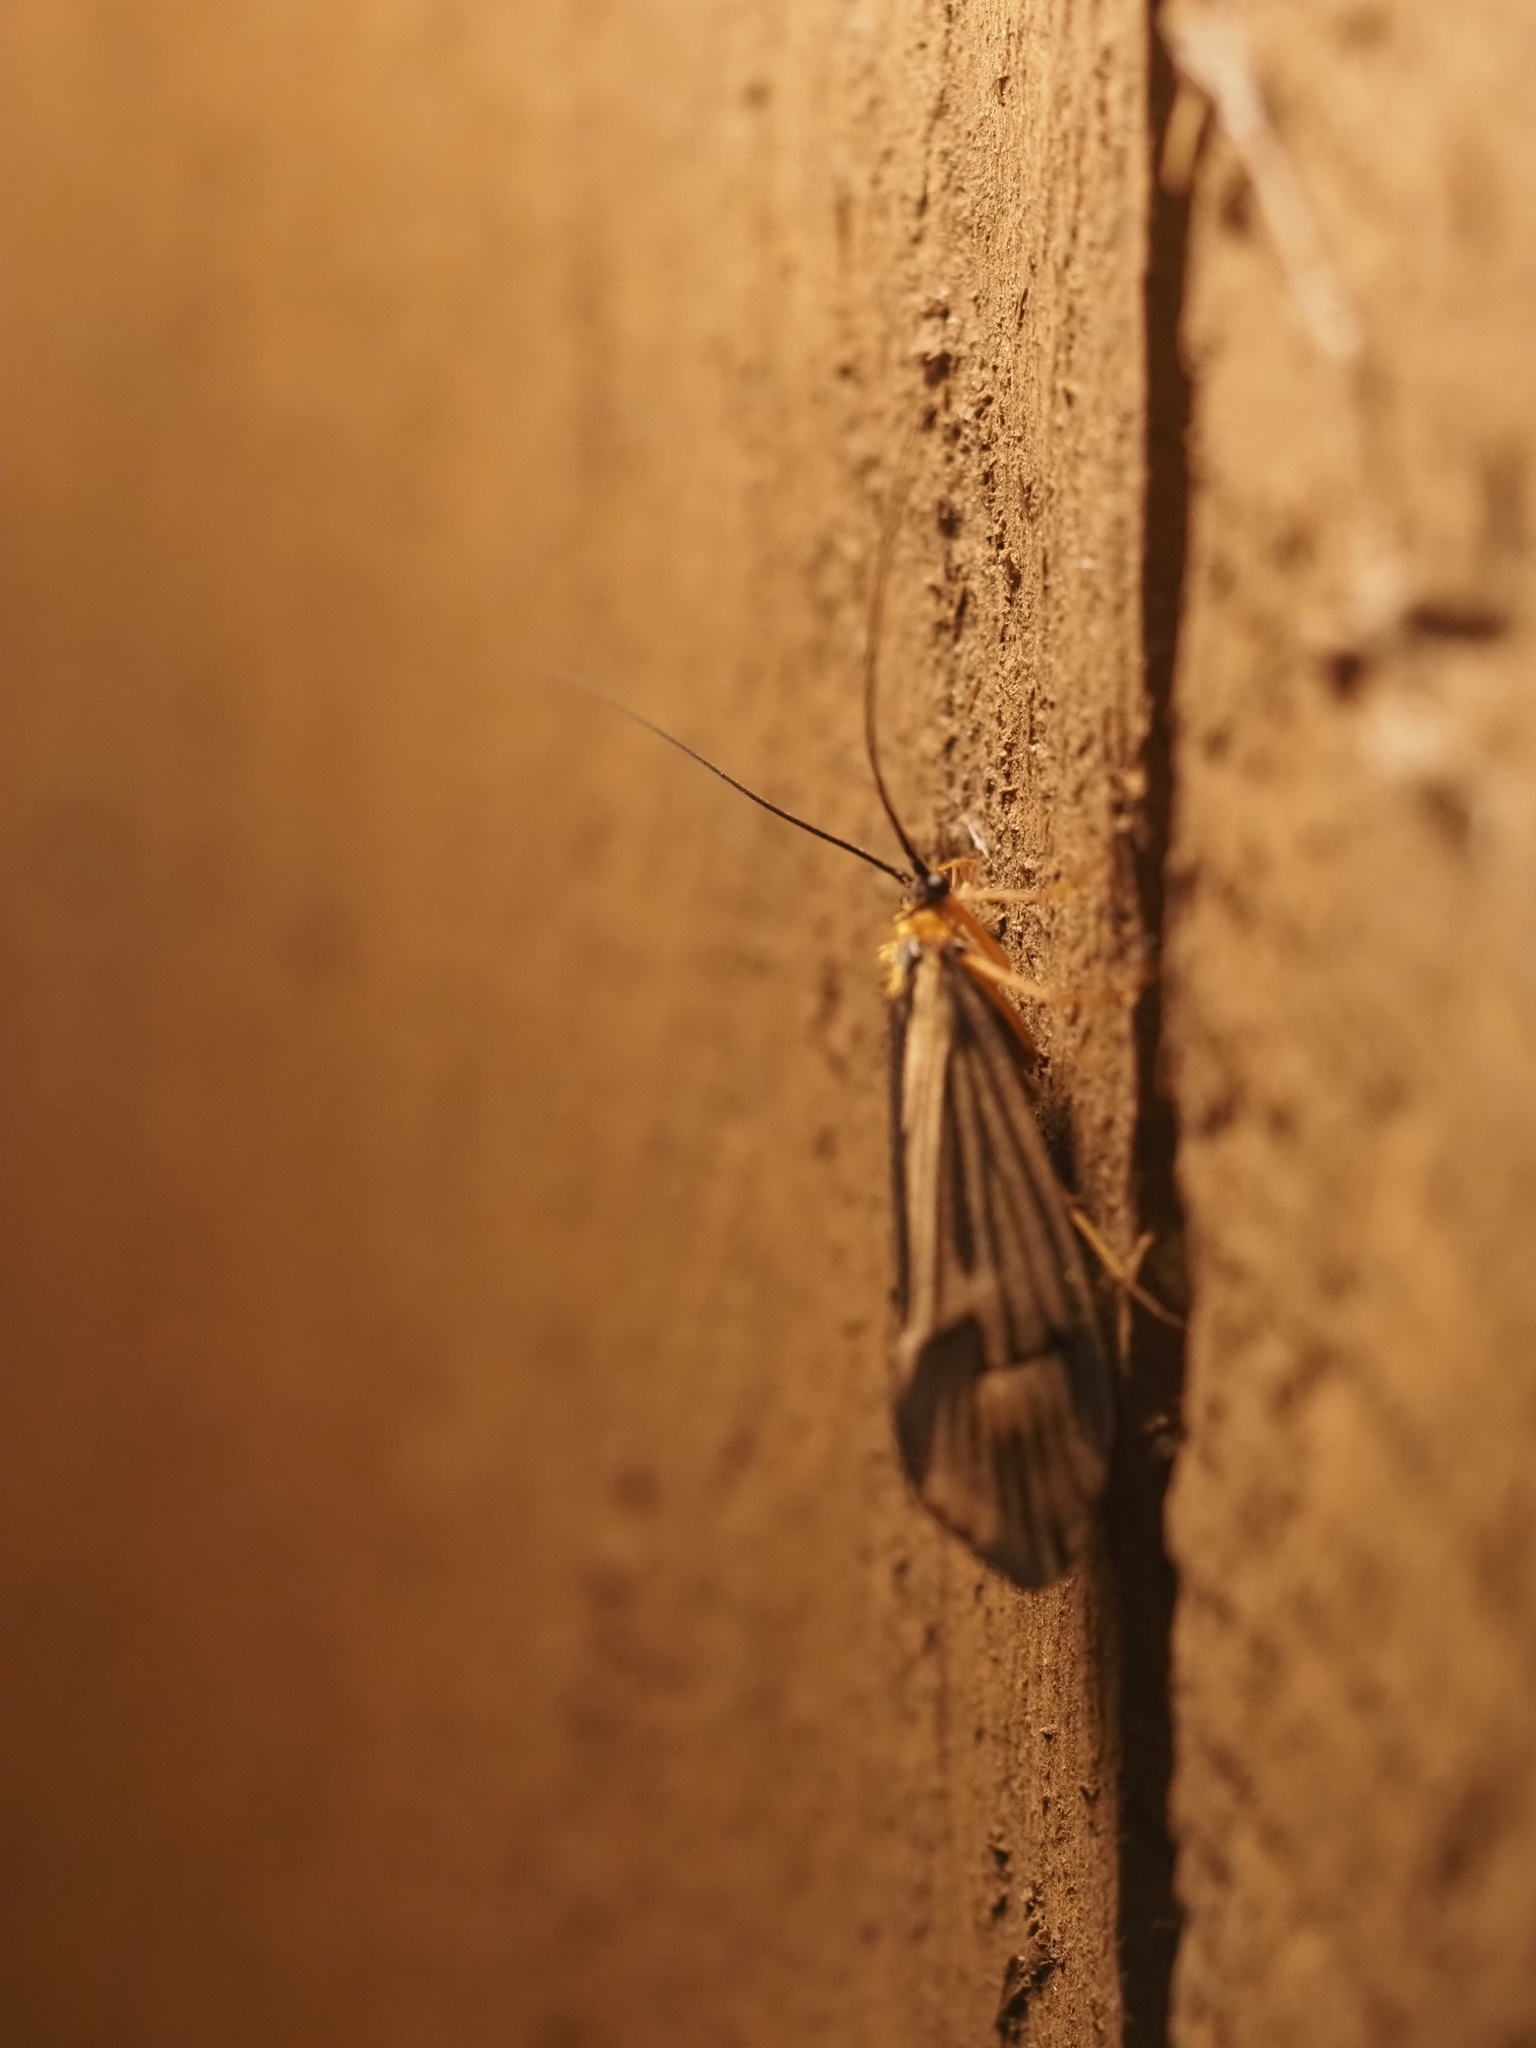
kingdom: Animalia
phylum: Arthropoda
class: Insecta
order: Trichoptera
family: Limnephilidae
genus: Halesochila
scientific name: Halesochila taylori
